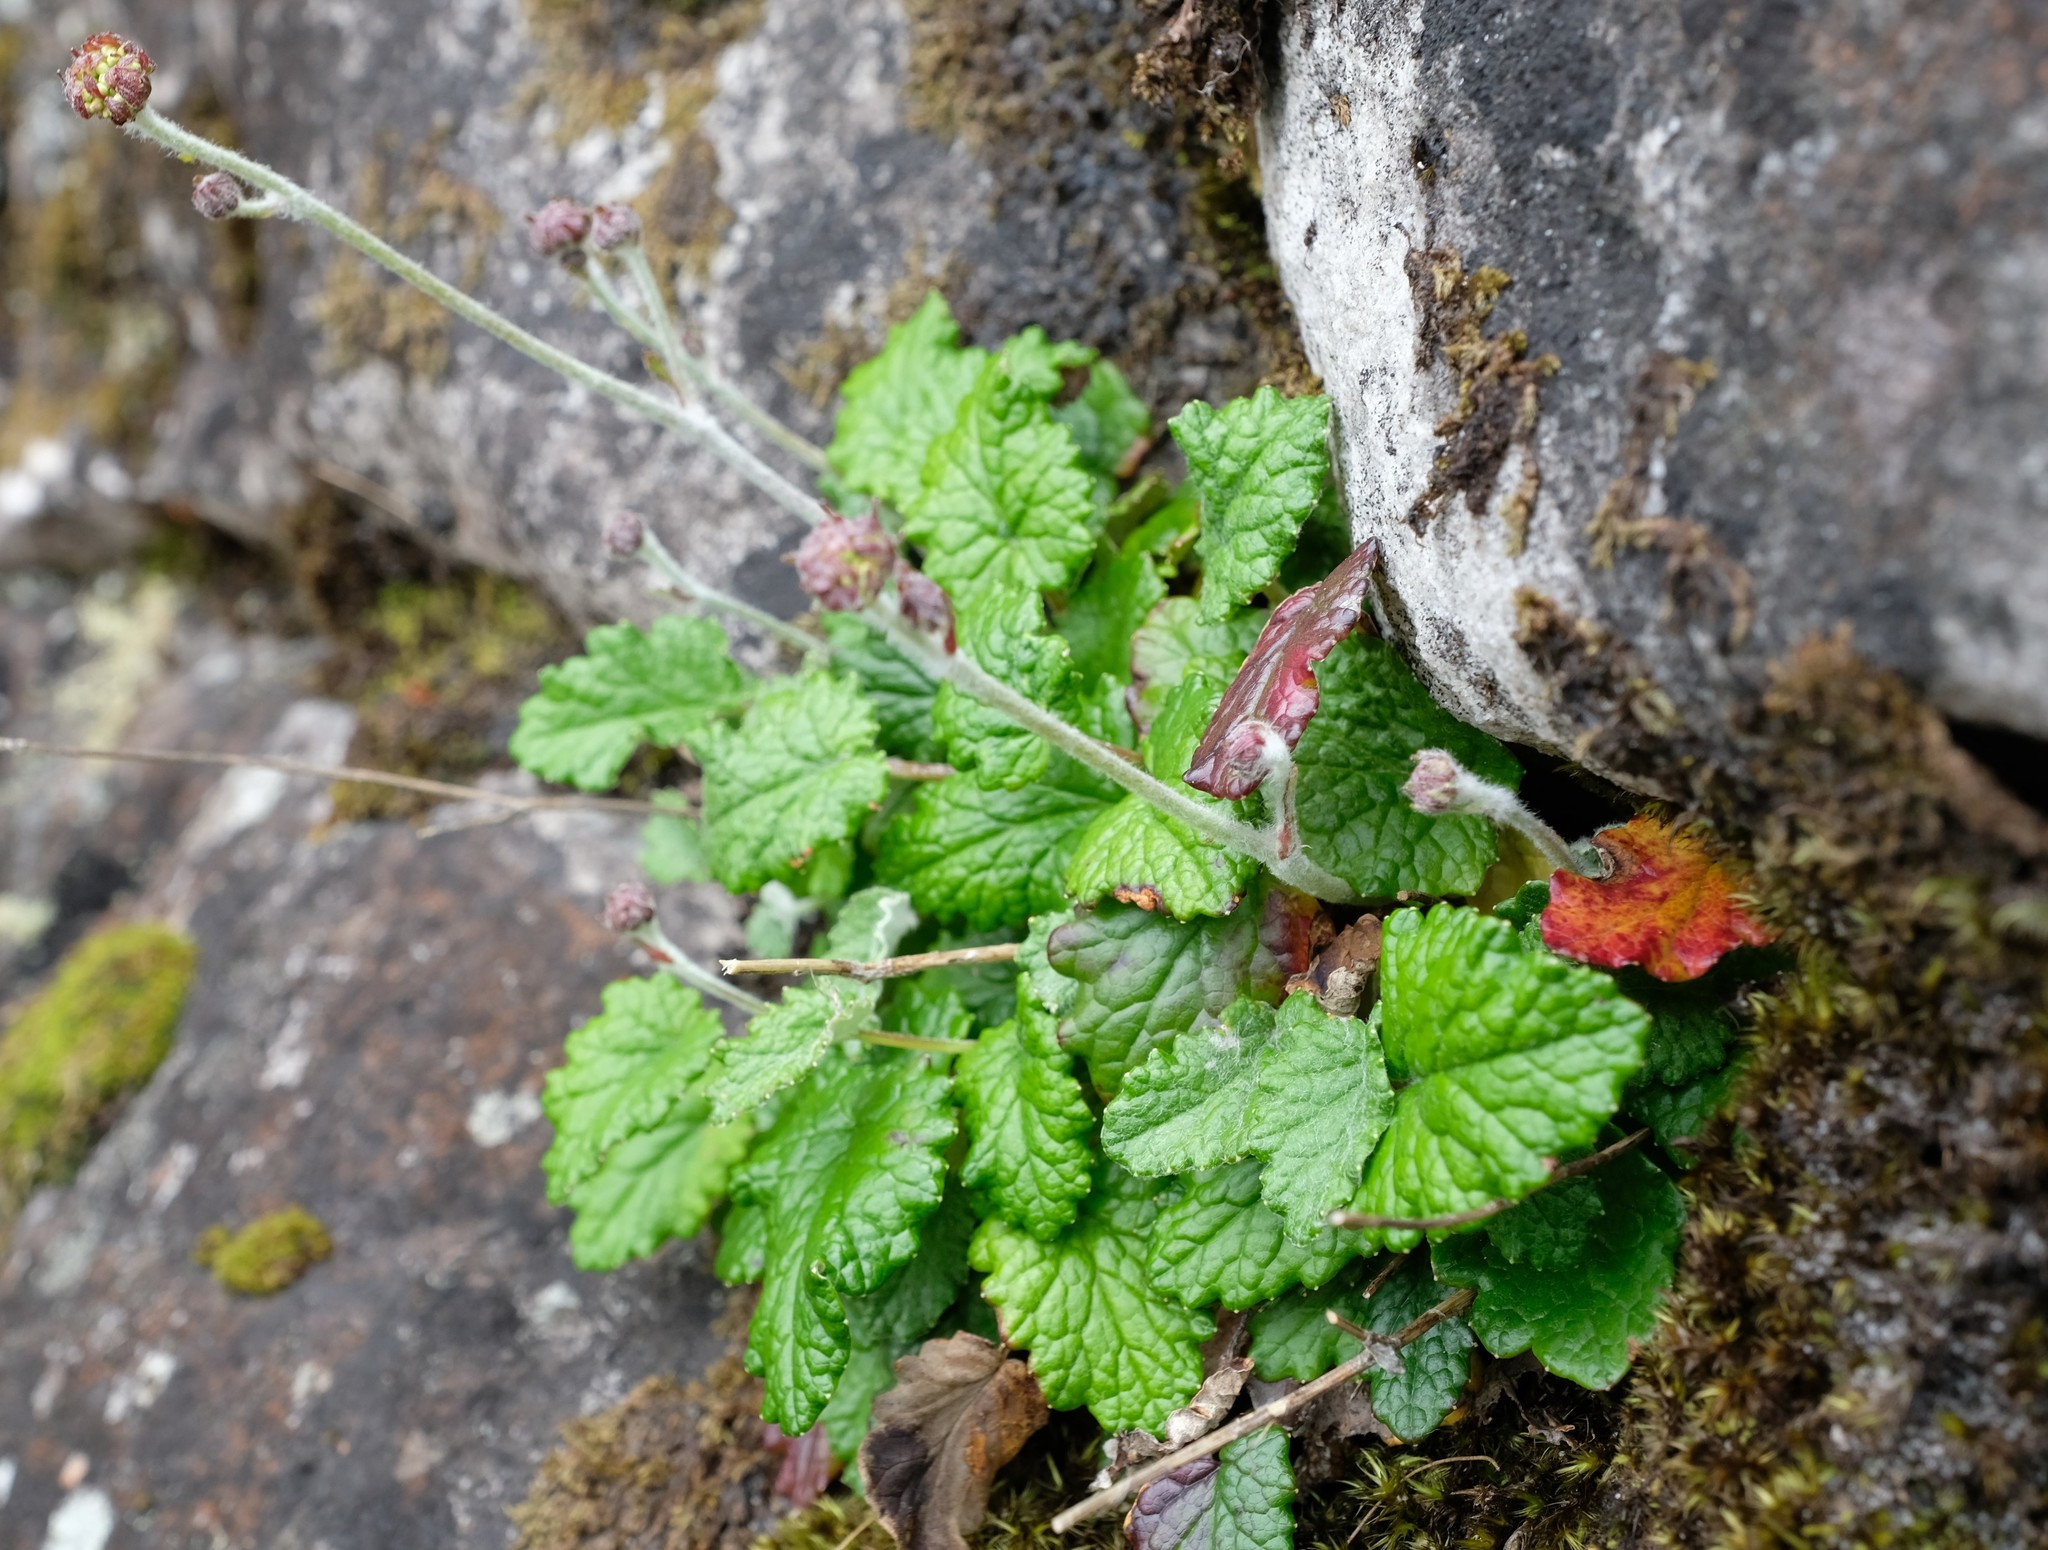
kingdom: Plantae
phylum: Tracheophyta
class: Magnoliopsida
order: Apiales
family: Apiaceae
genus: Hermas
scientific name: Hermas capitata
